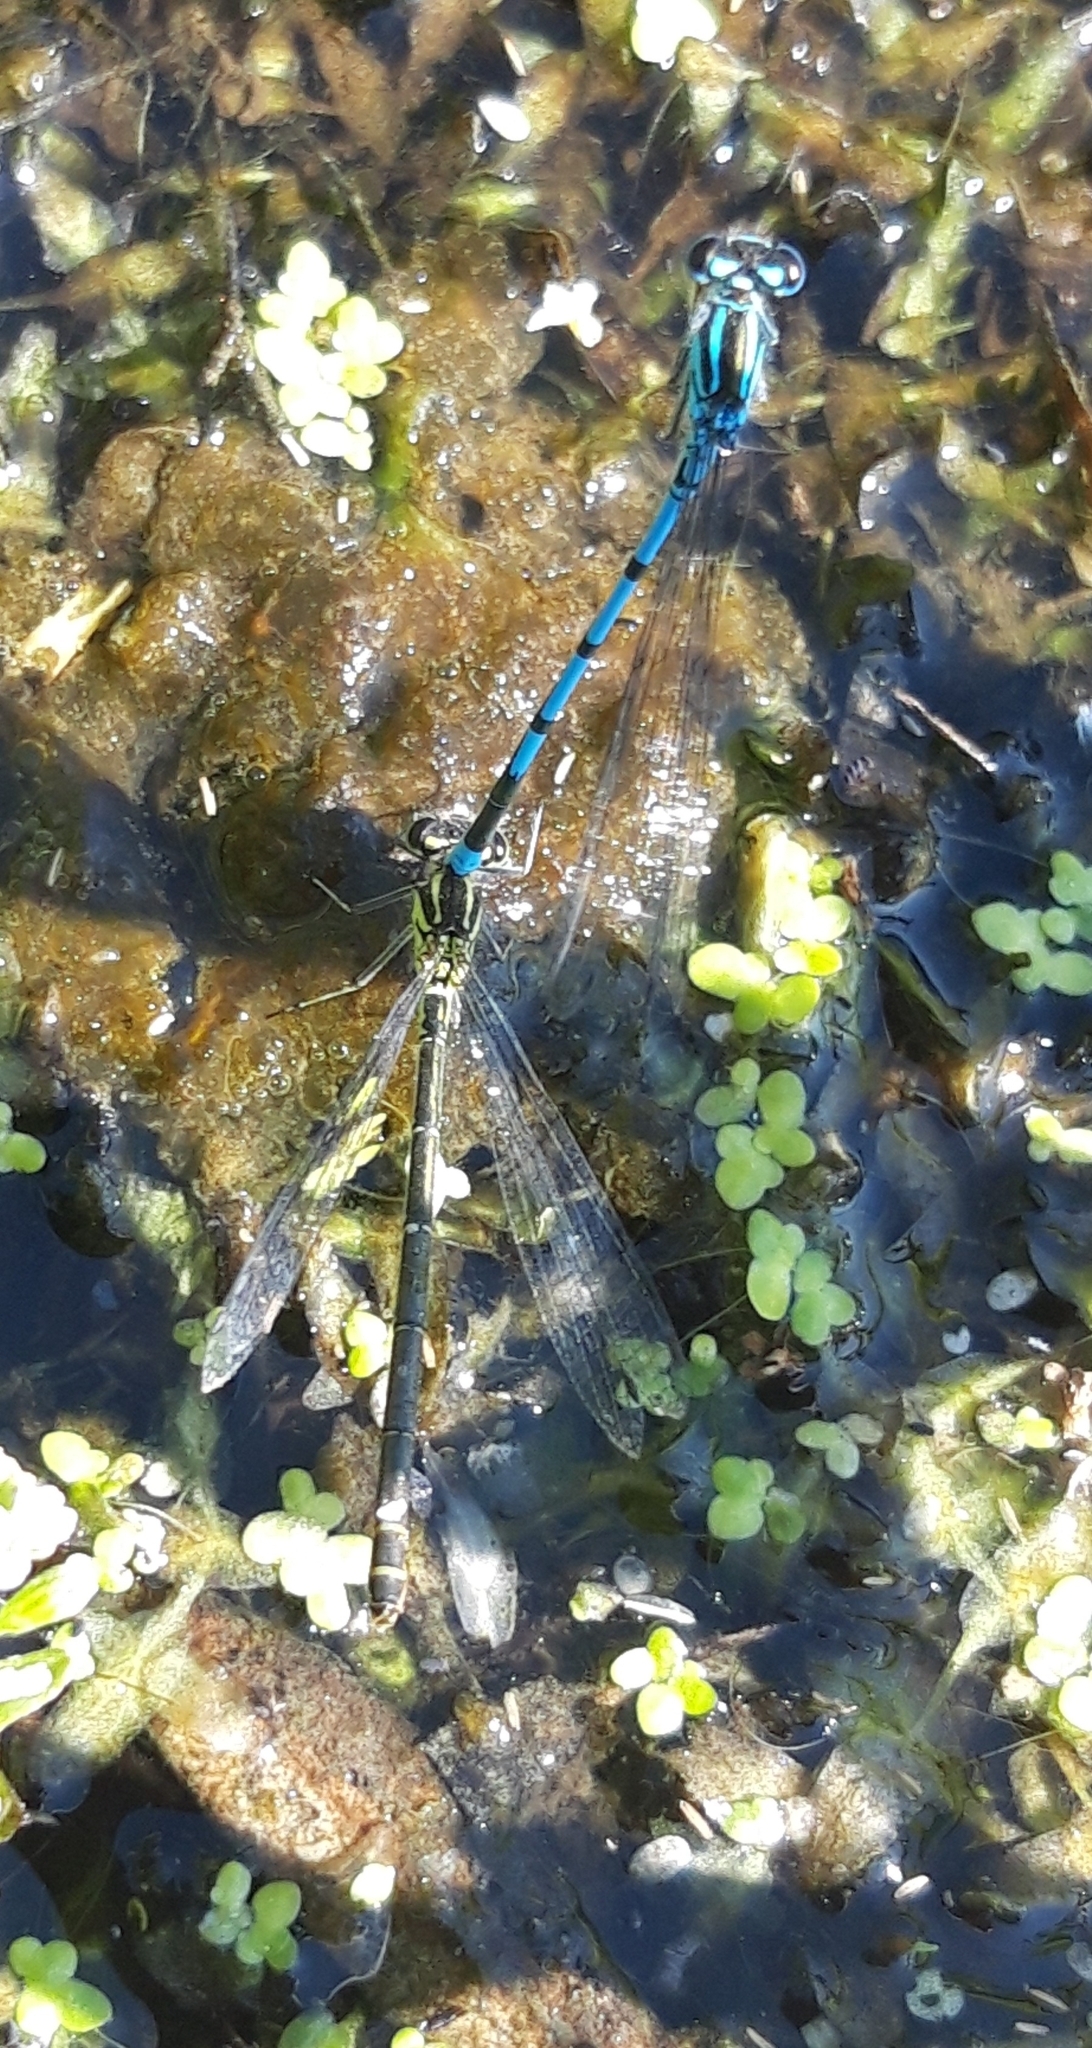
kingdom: Animalia
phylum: Arthropoda
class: Insecta
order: Odonata
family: Coenagrionidae
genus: Coenagrion
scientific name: Coenagrion puella
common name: Azure damselfly
